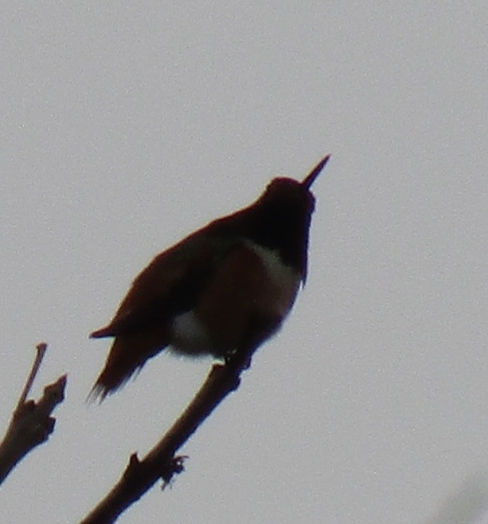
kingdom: Animalia
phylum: Chordata
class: Aves
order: Apodiformes
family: Trochilidae
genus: Selasphorus
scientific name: Selasphorus sasin
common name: Allen's hummingbird
